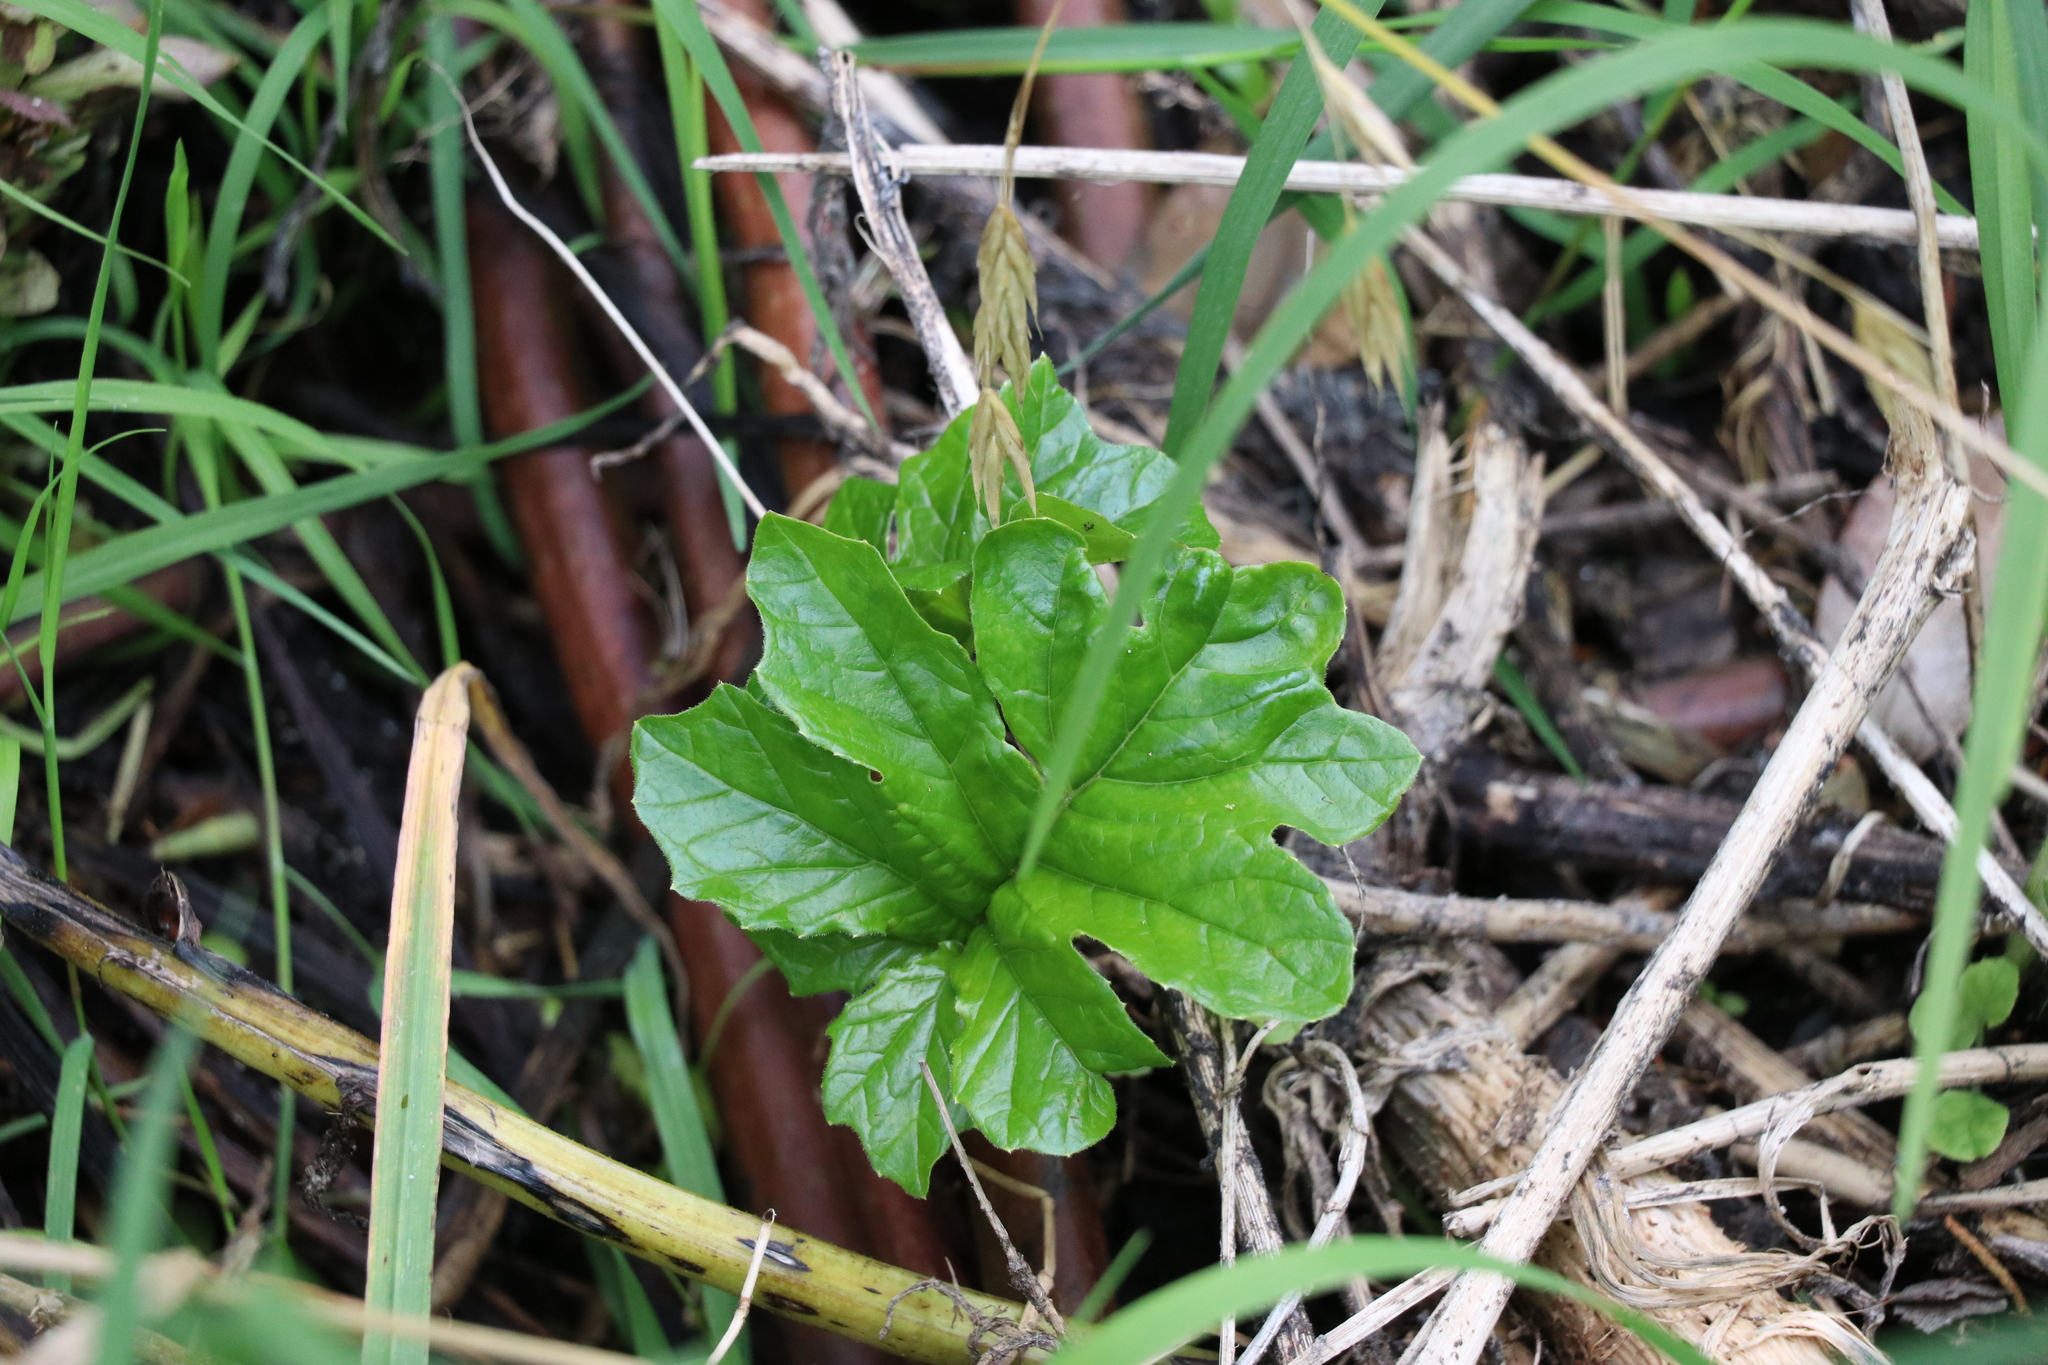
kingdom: Plantae
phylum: Tracheophyta
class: Magnoliopsida
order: Lamiales
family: Acanthaceae
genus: Acanthus
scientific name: Acanthus mollis
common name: Bear's-breech
